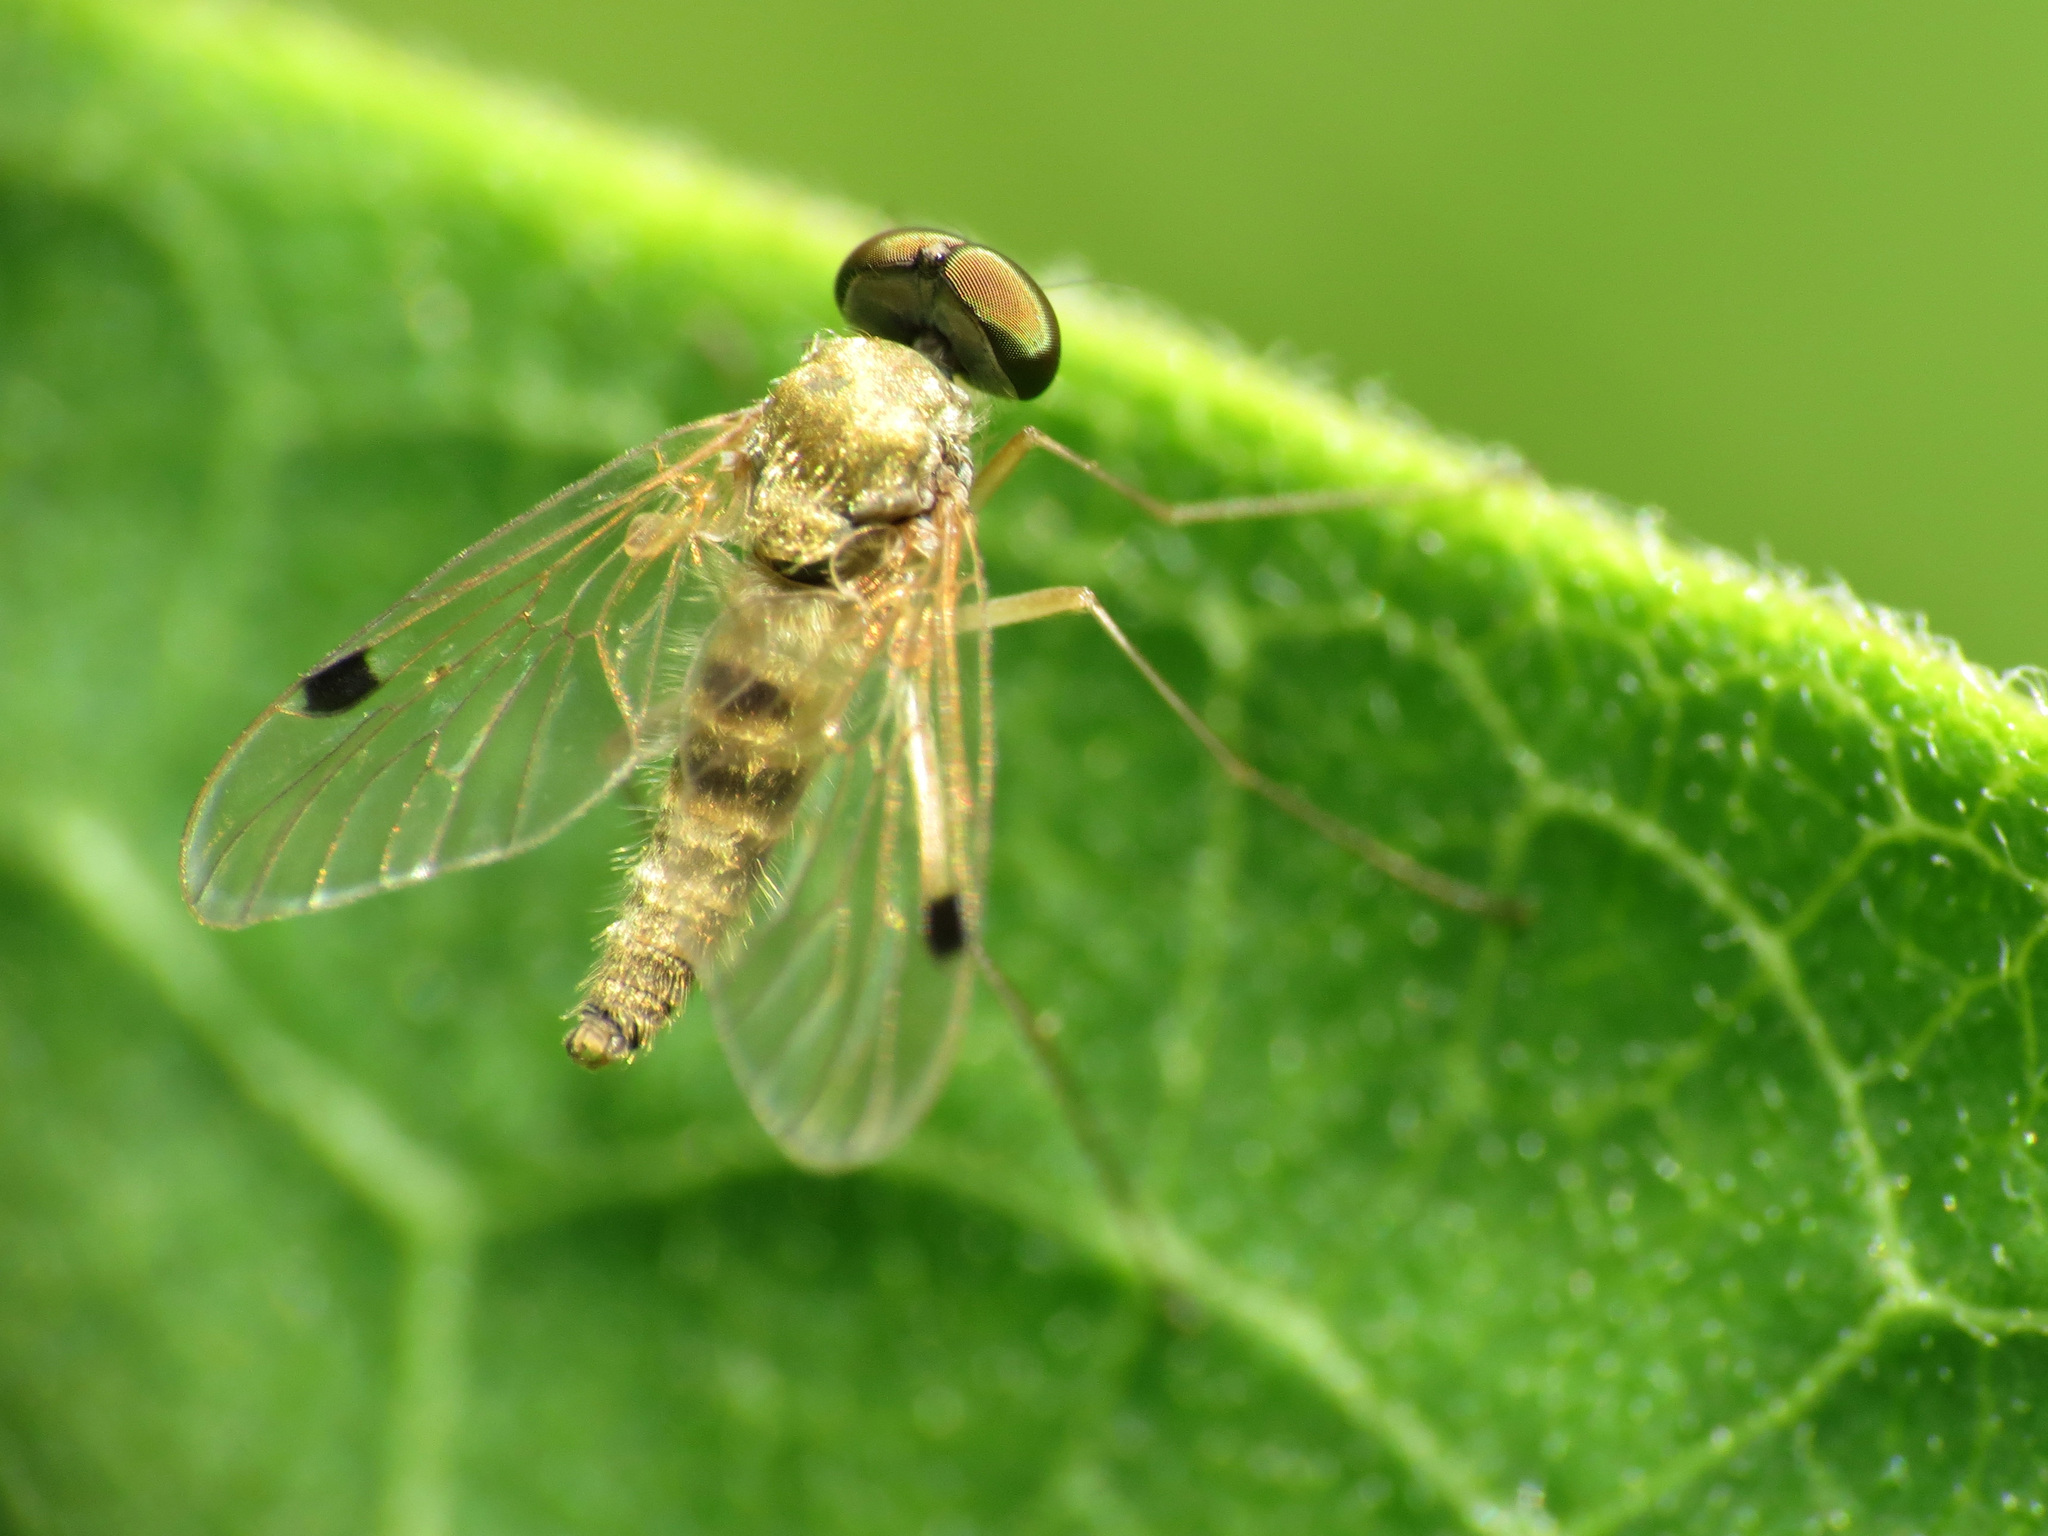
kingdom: Animalia
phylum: Arthropoda
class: Insecta
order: Diptera
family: Rhagionidae
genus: Chrysopilus
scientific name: Chrysopilus modestus
